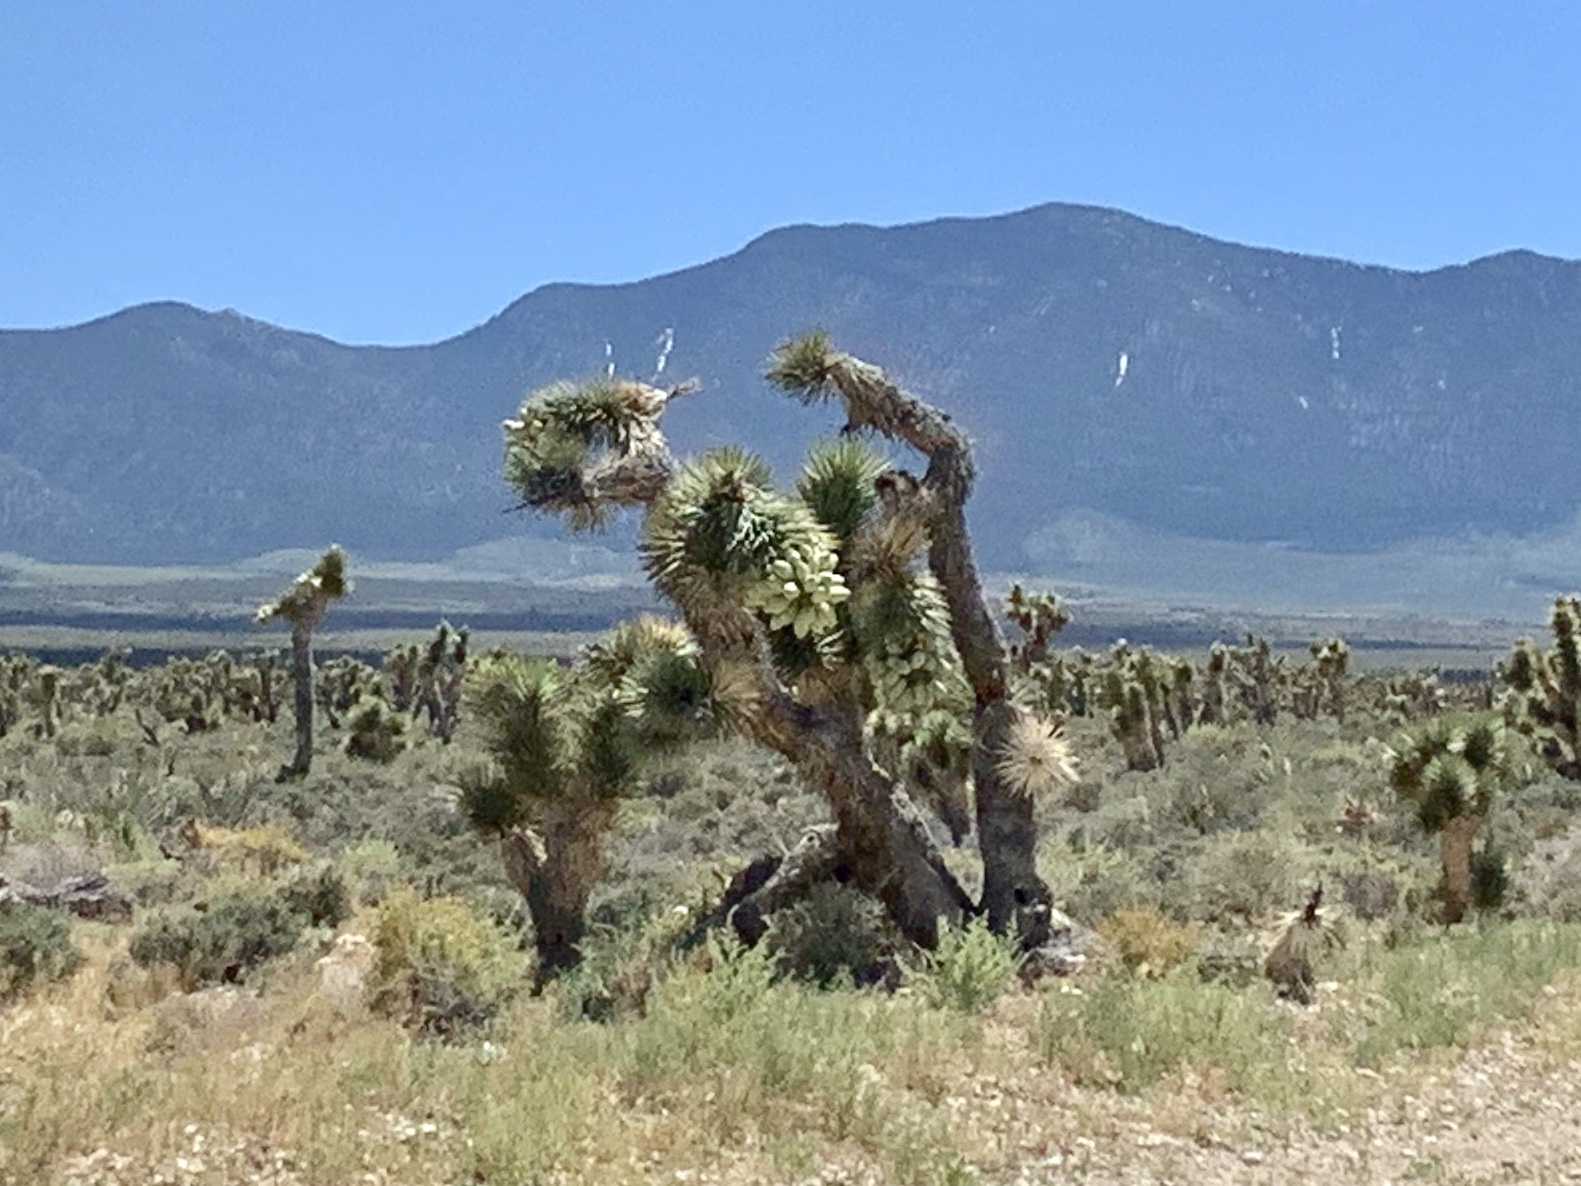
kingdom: Plantae
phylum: Tracheophyta
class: Liliopsida
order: Asparagales
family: Asparagaceae
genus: Yucca
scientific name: Yucca brevifolia
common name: Joshua tree
